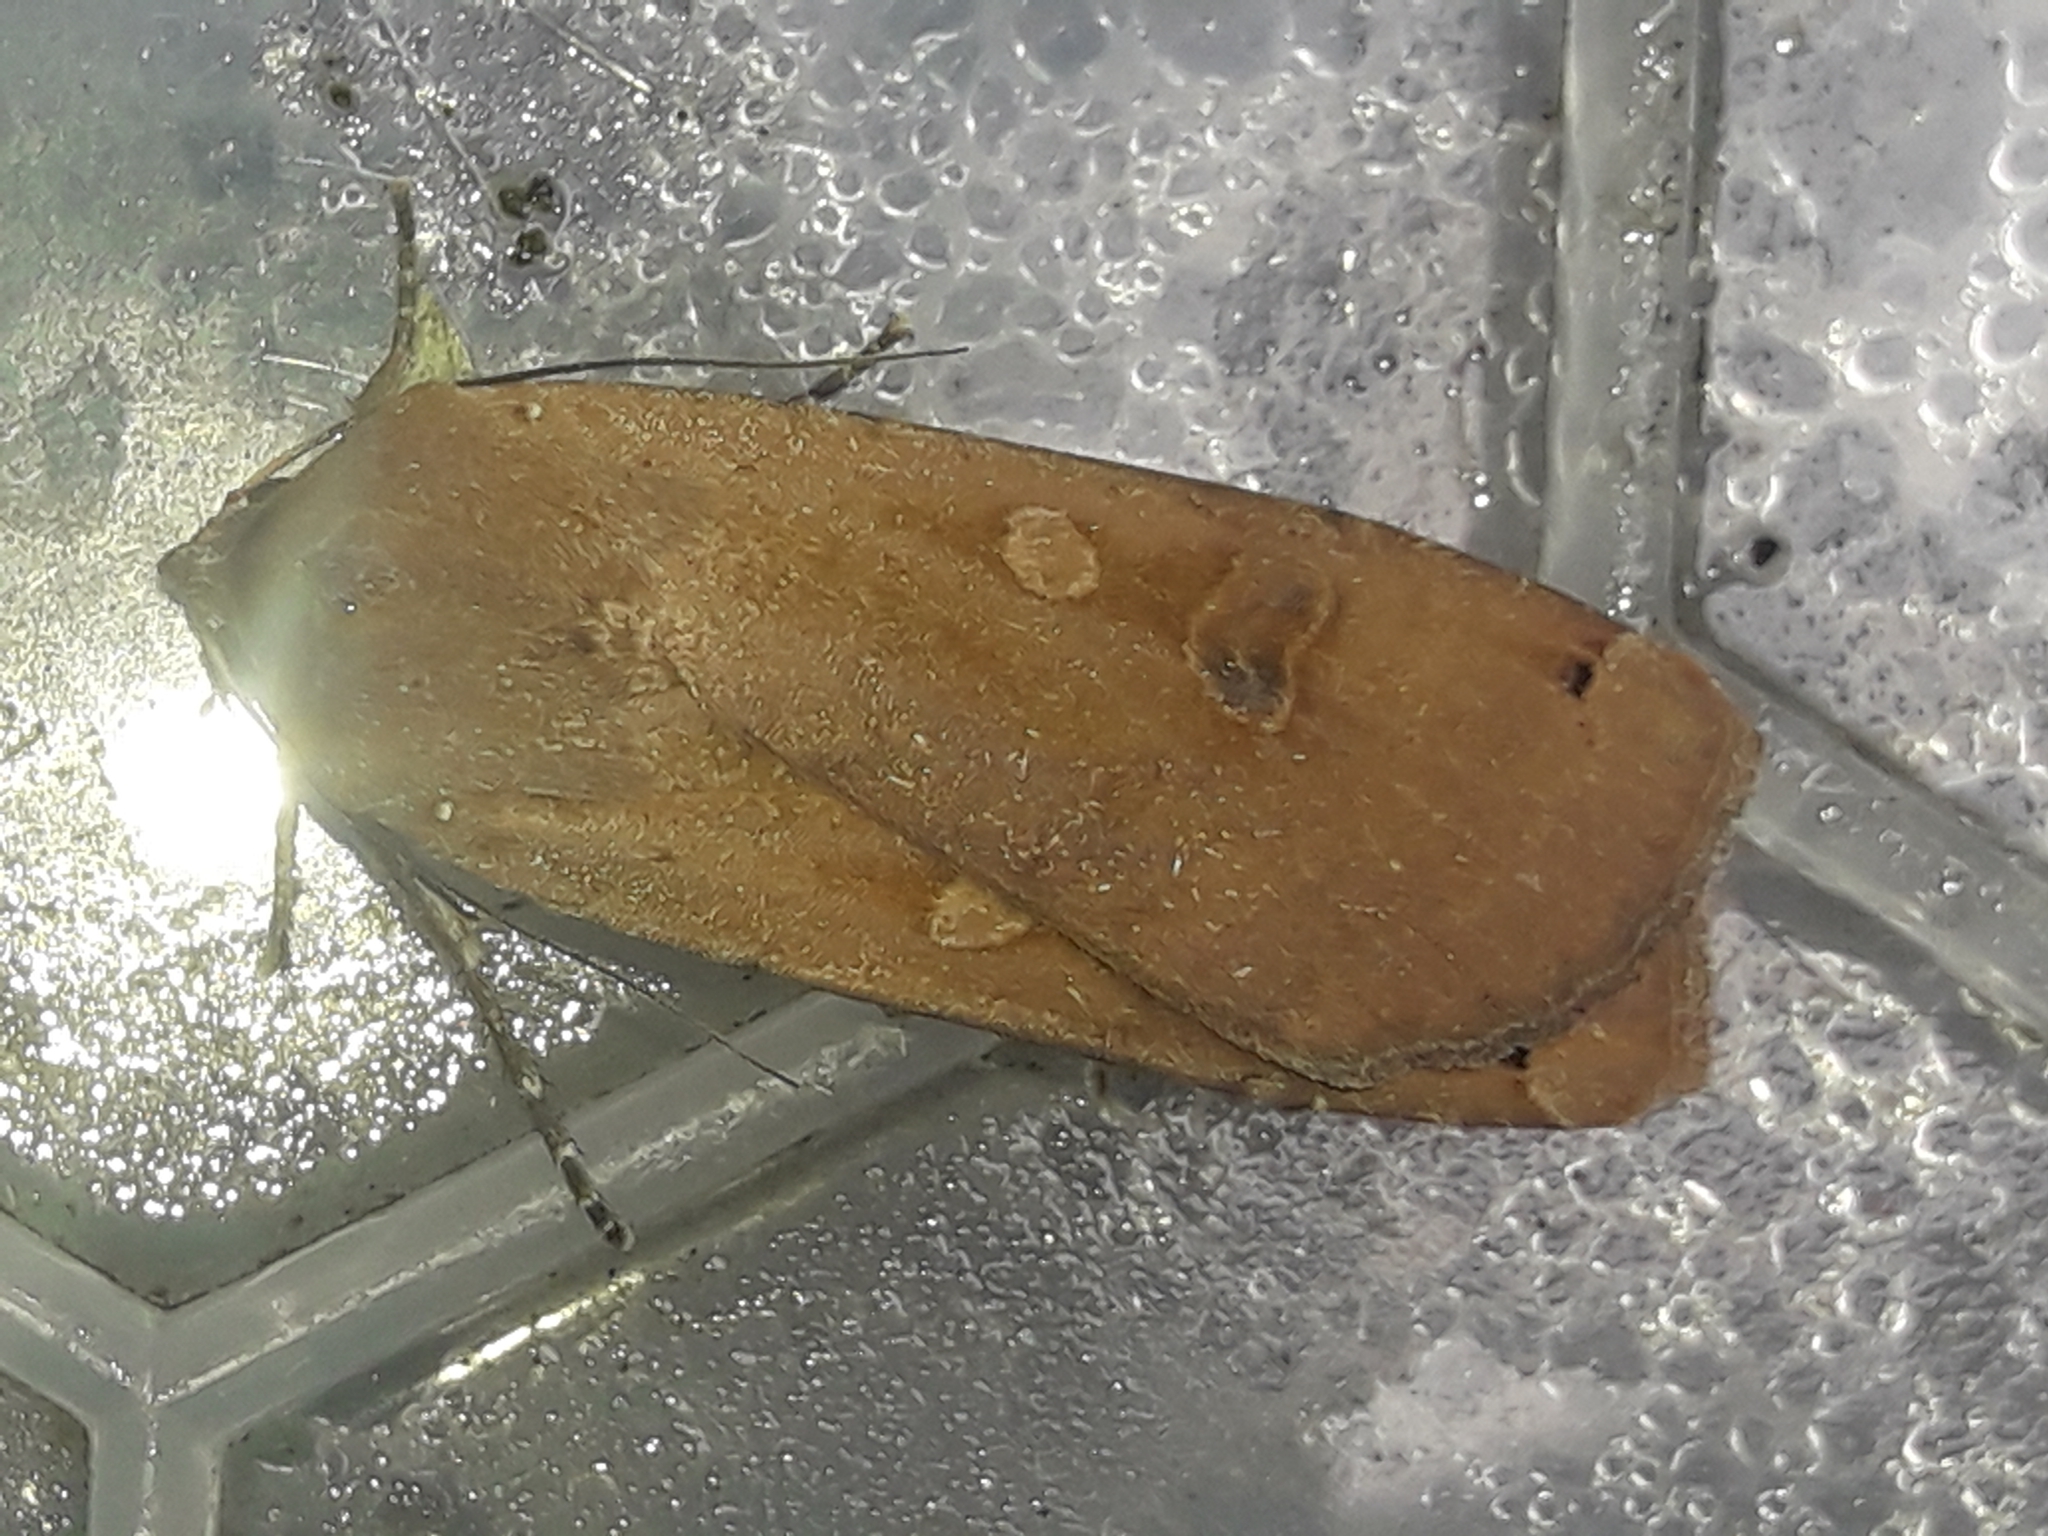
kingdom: Animalia
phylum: Arthropoda
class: Insecta
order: Lepidoptera
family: Noctuidae
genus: Noctua
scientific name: Noctua pronuba
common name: Large yellow underwing
